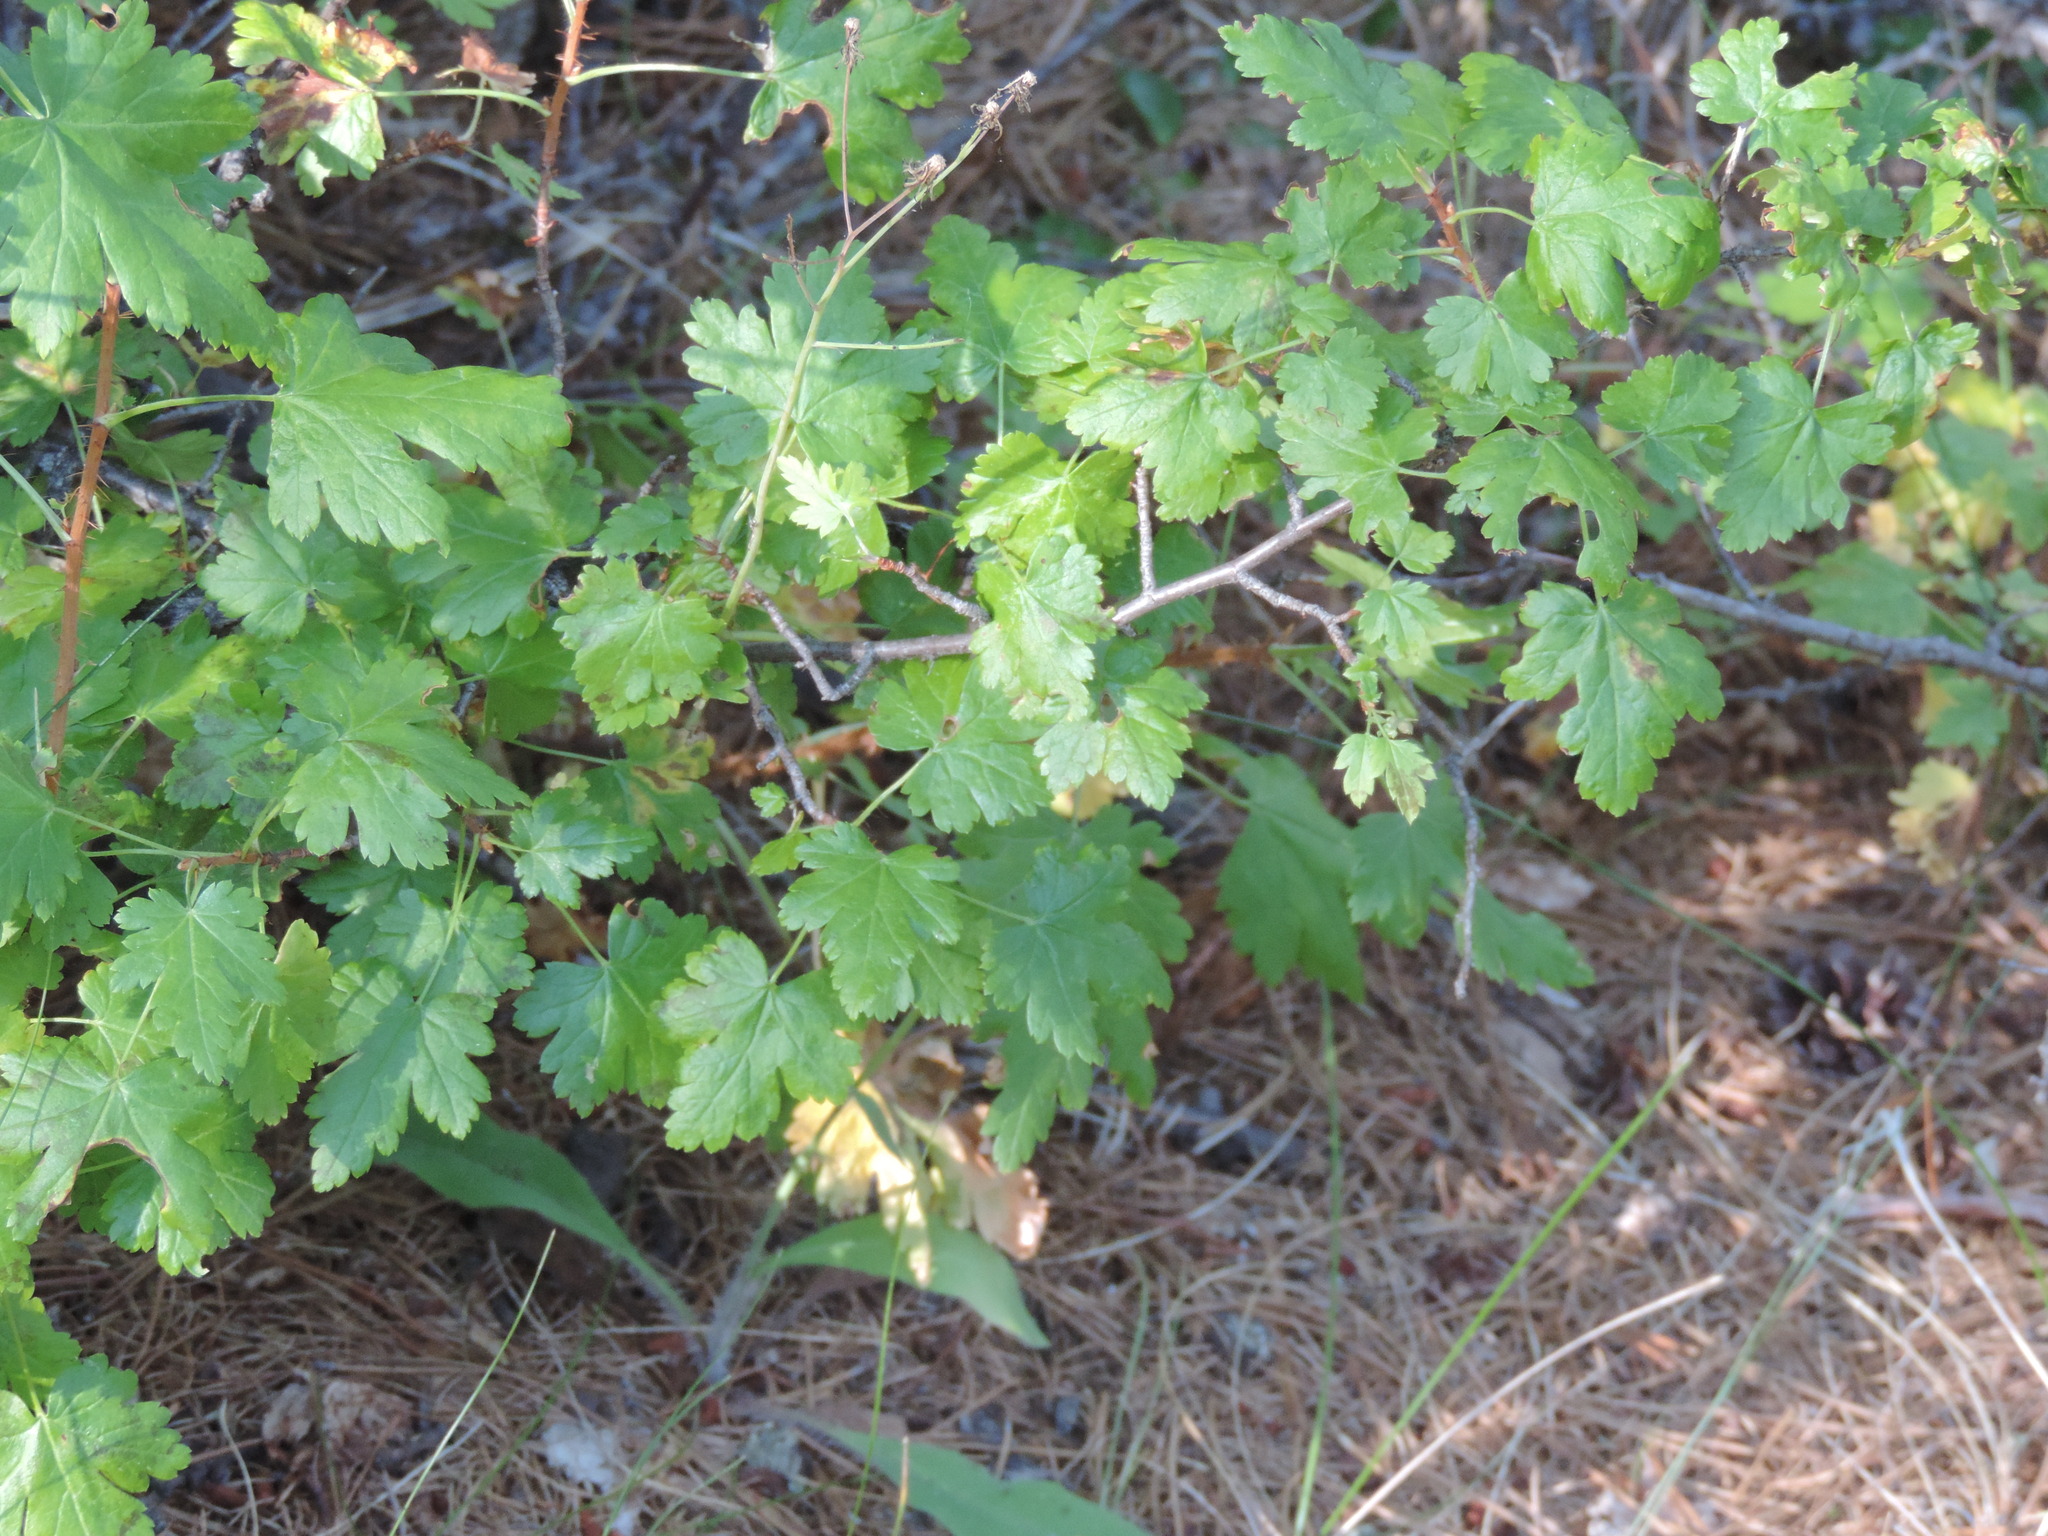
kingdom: Plantae
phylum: Tracheophyta
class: Magnoliopsida
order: Saxifragales
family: Grossulariaceae
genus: Ribes
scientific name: Ribes lacustre
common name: Black gooseberry
